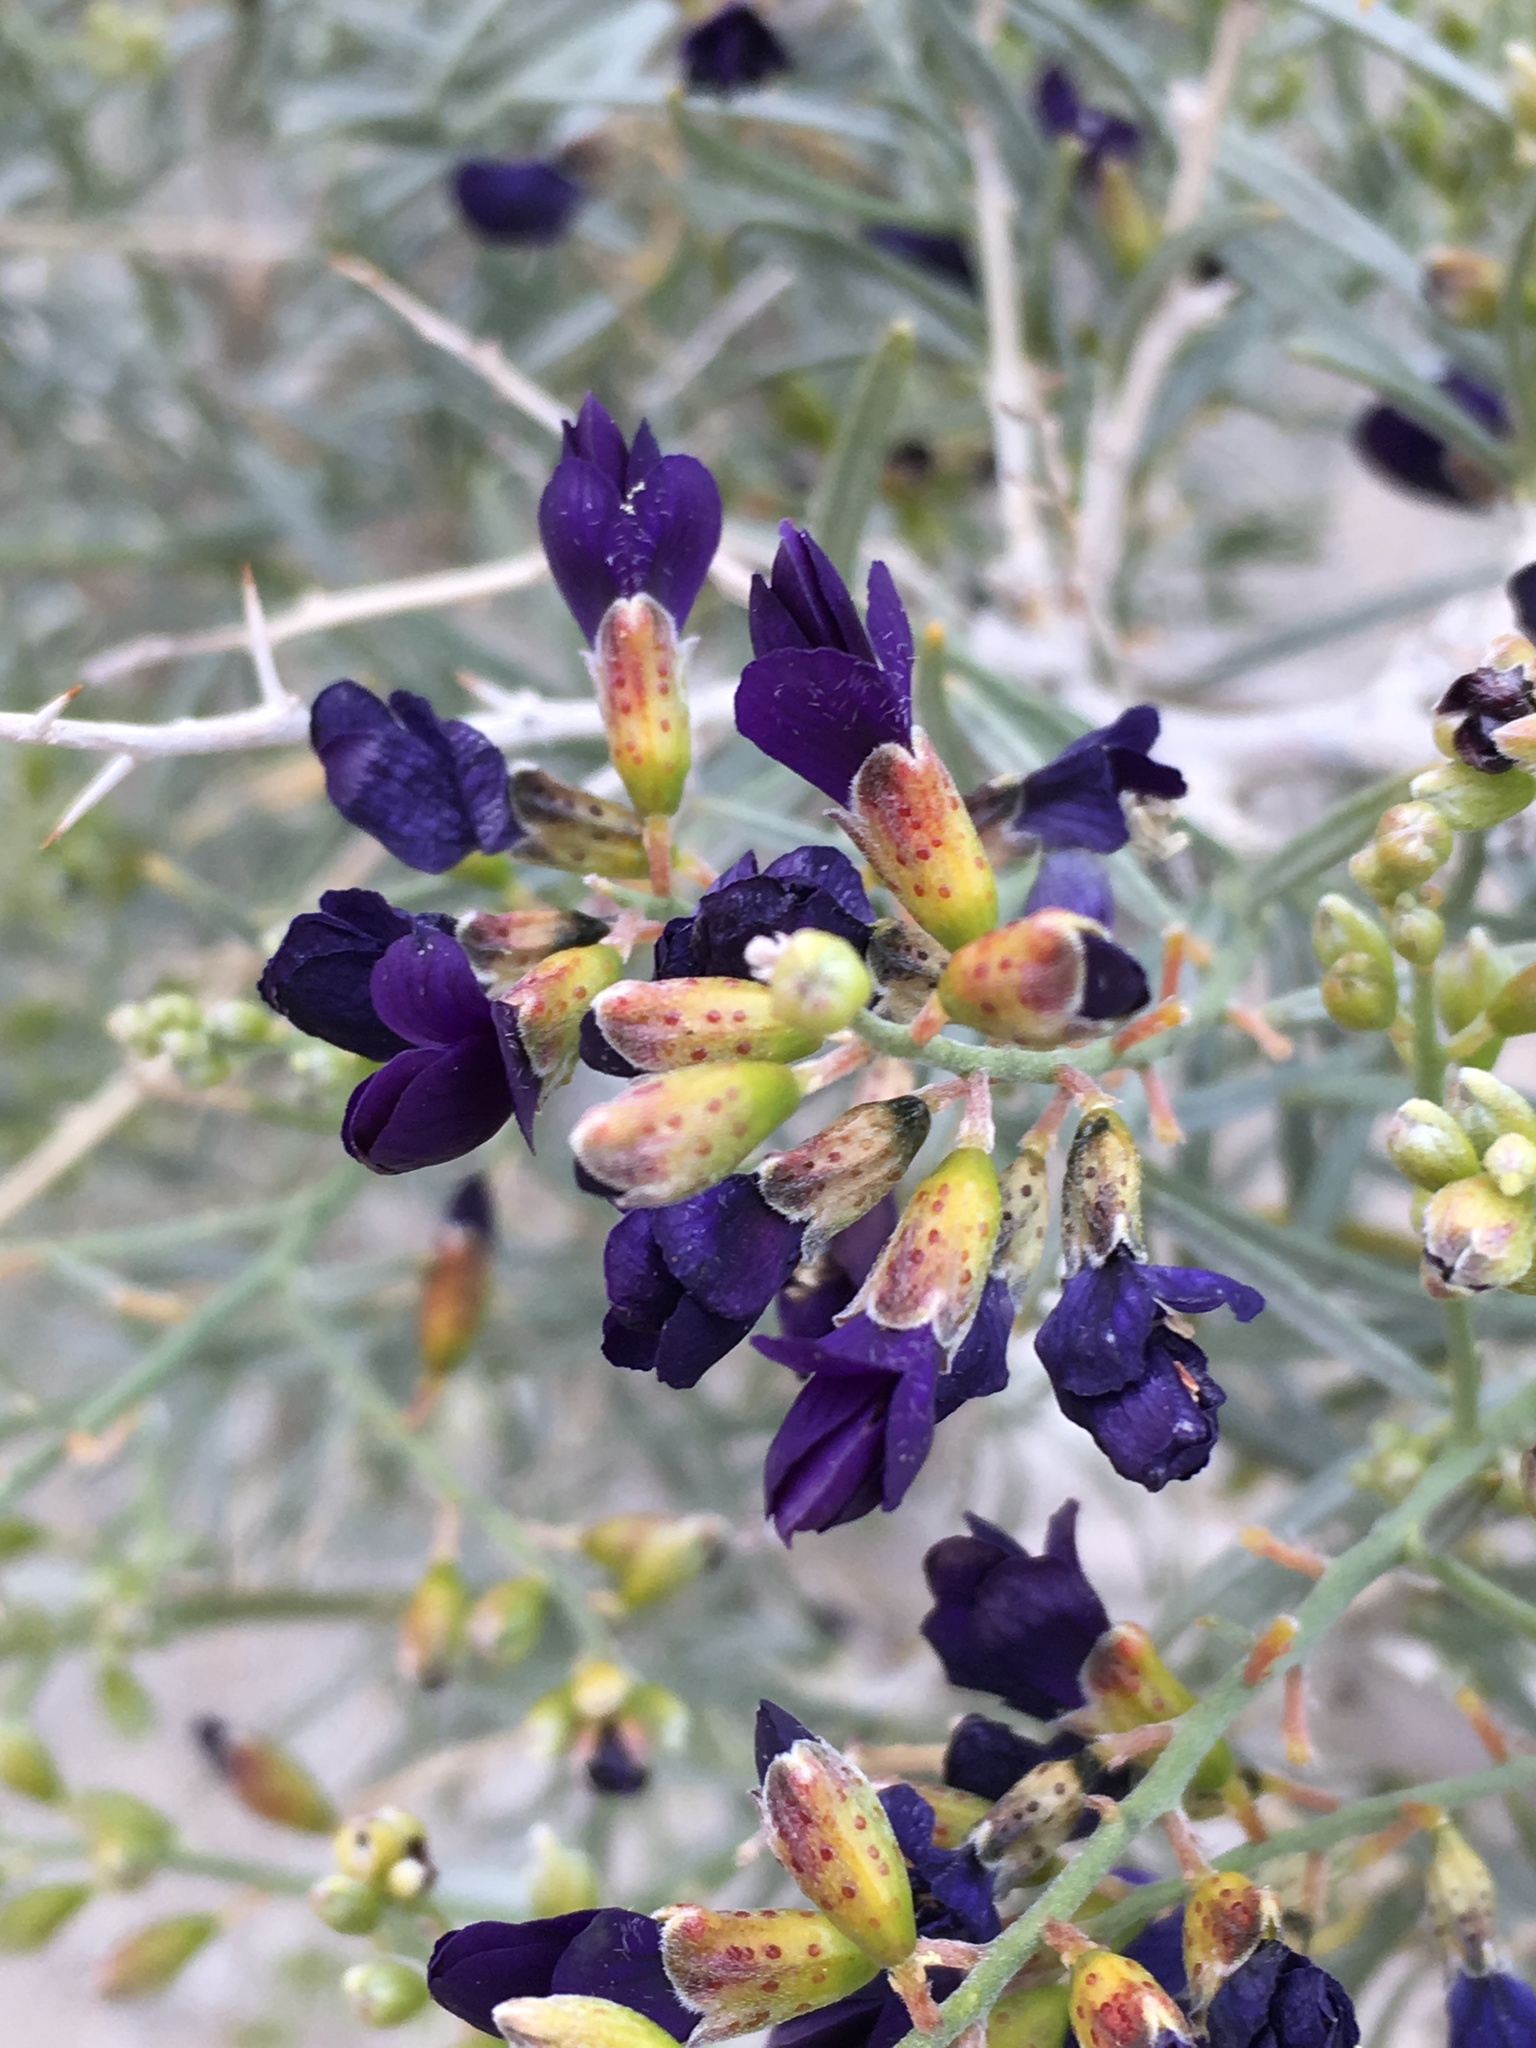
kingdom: Plantae
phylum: Tracheophyta
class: Magnoliopsida
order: Fabales
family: Fabaceae
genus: Psorothamnus
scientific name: Psorothamnus schottii
